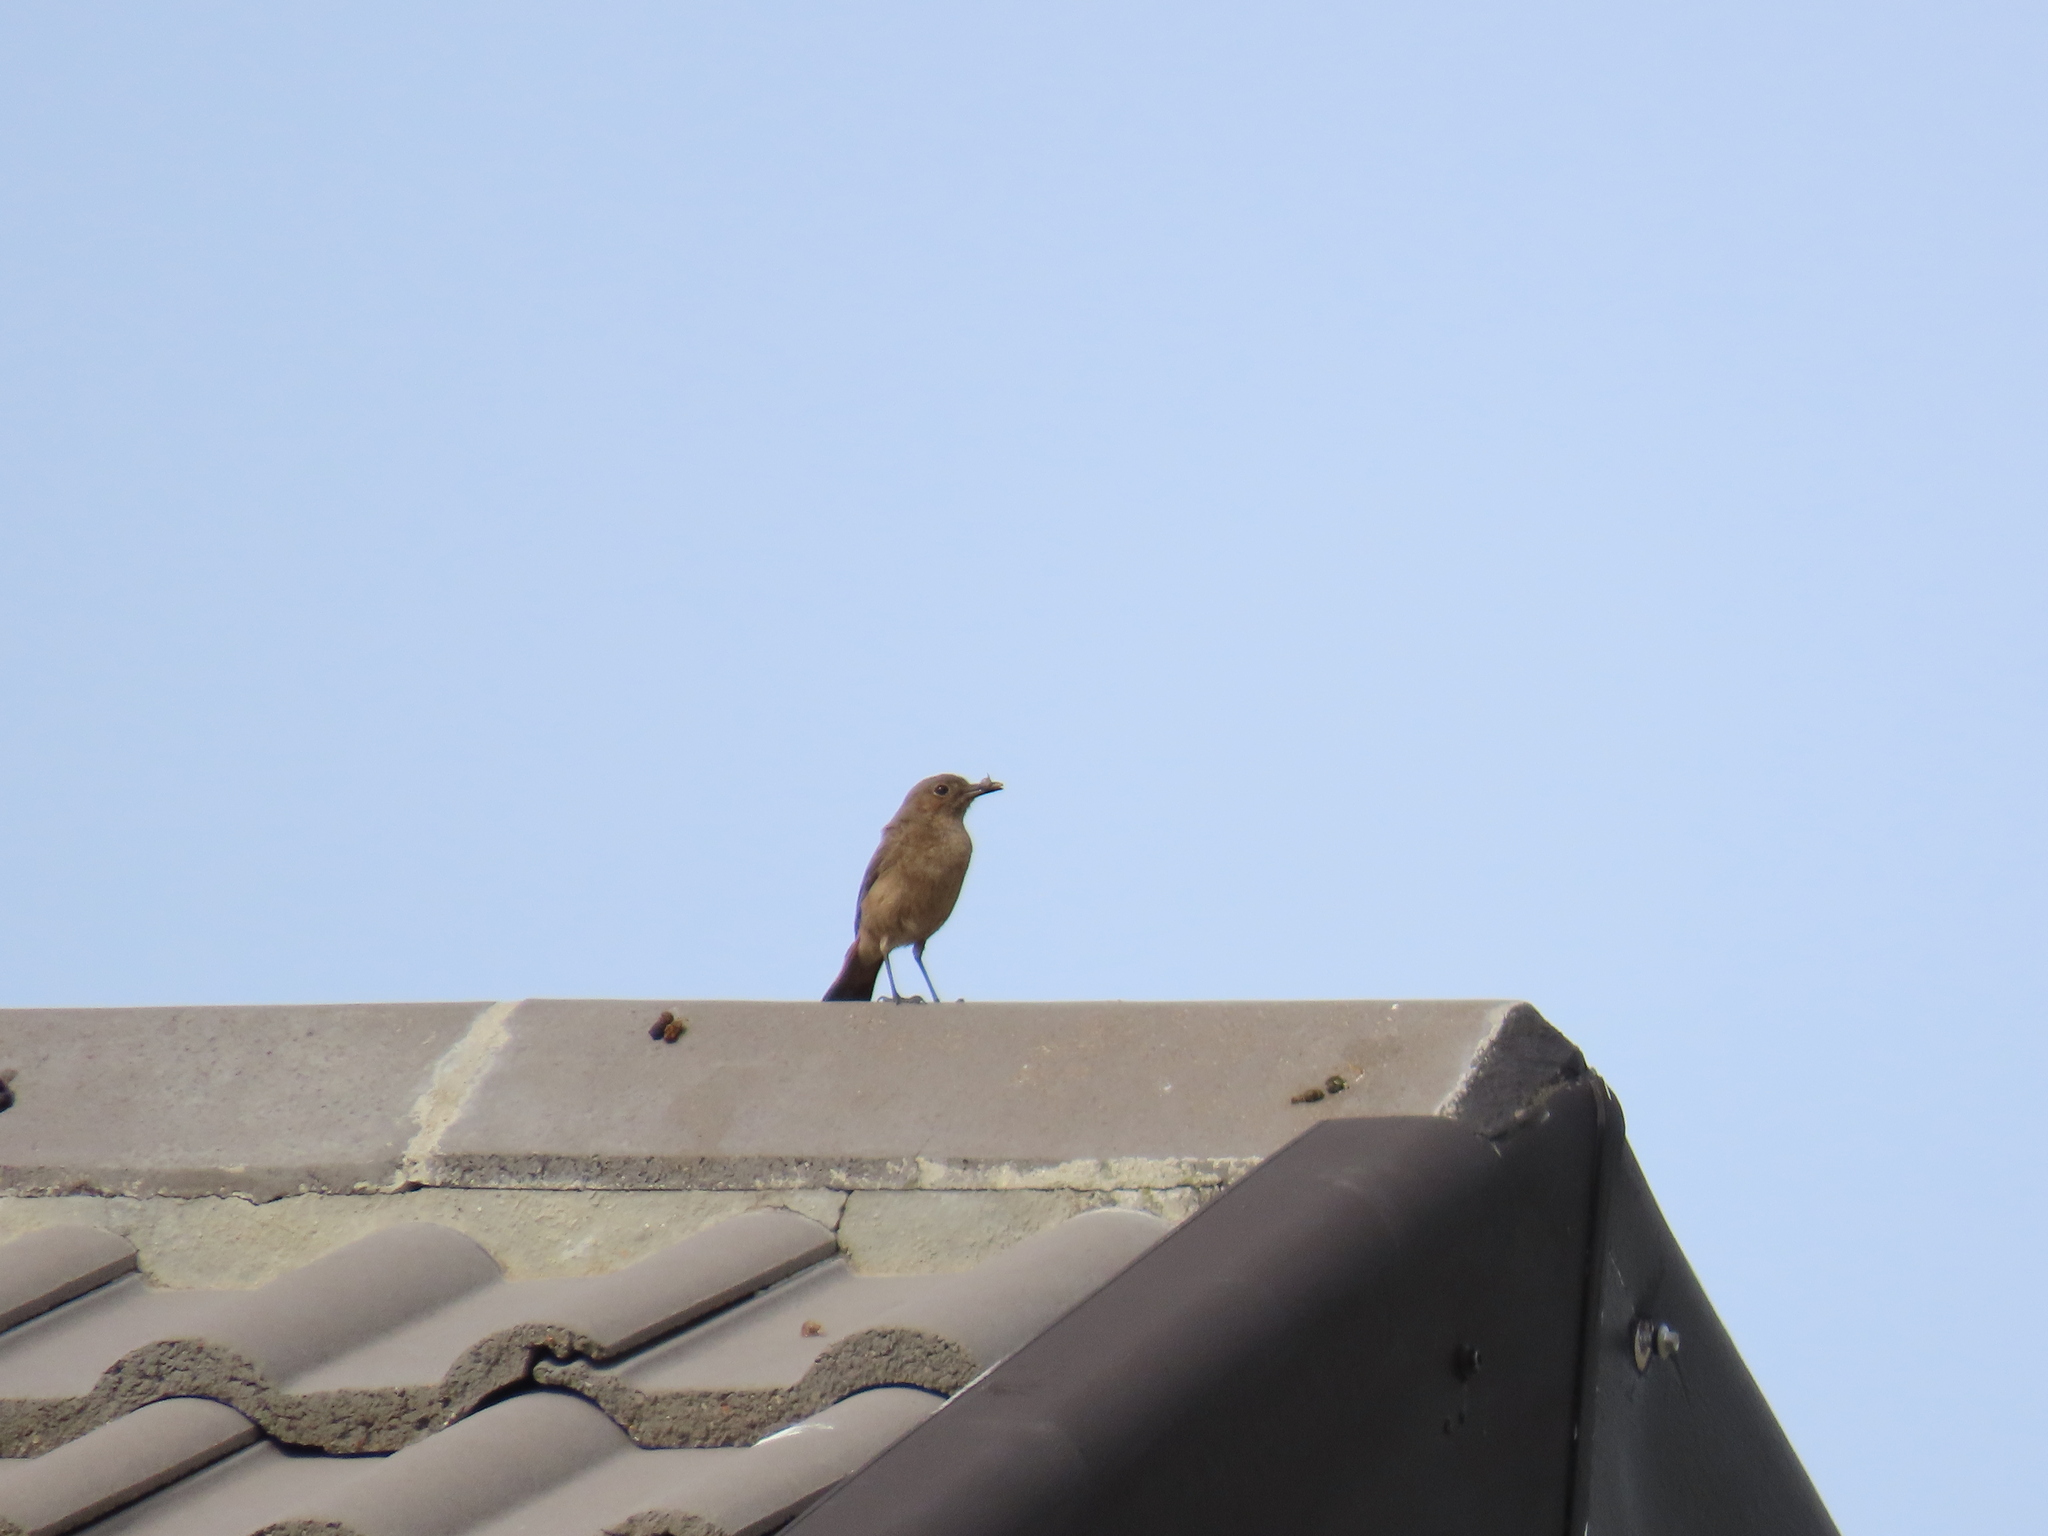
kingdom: Animalia
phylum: Chordata
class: Aves
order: Passeriformes
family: Muscicapidae
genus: Oenanthe
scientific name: Oenanthe familiaris
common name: Familiar chat
